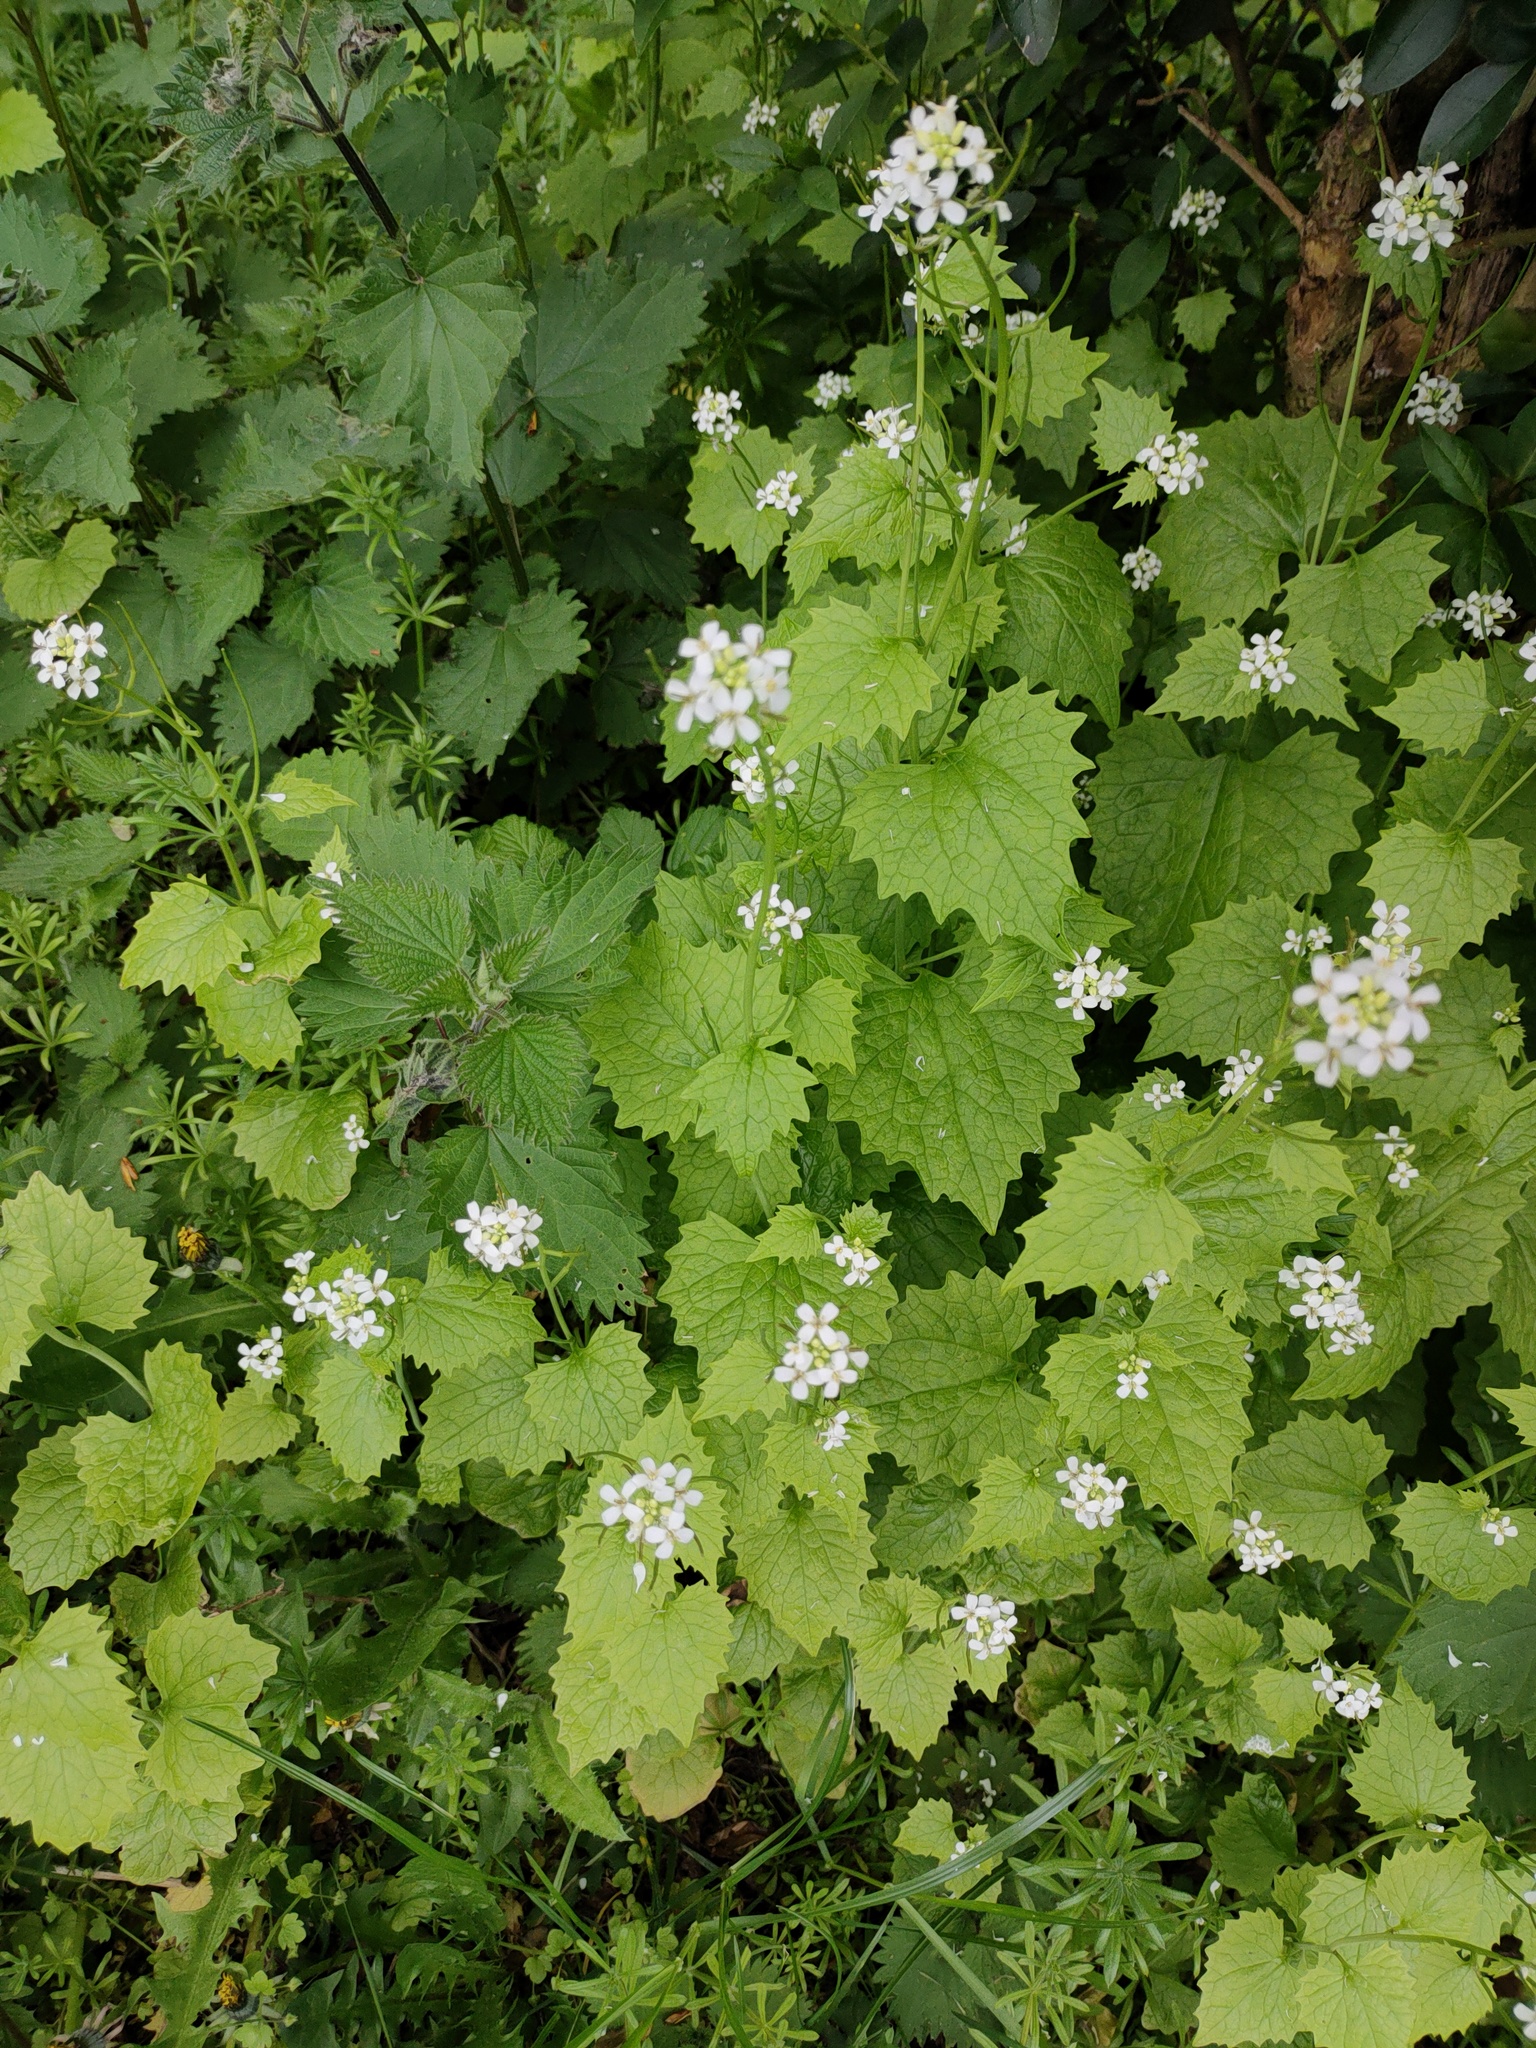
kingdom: Plantae
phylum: Tracheophyta
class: Magnoliopsida
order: Brassicales
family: Brassicaceae
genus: Alliaria
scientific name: Alliaria petiolata
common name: Garlic mustard
